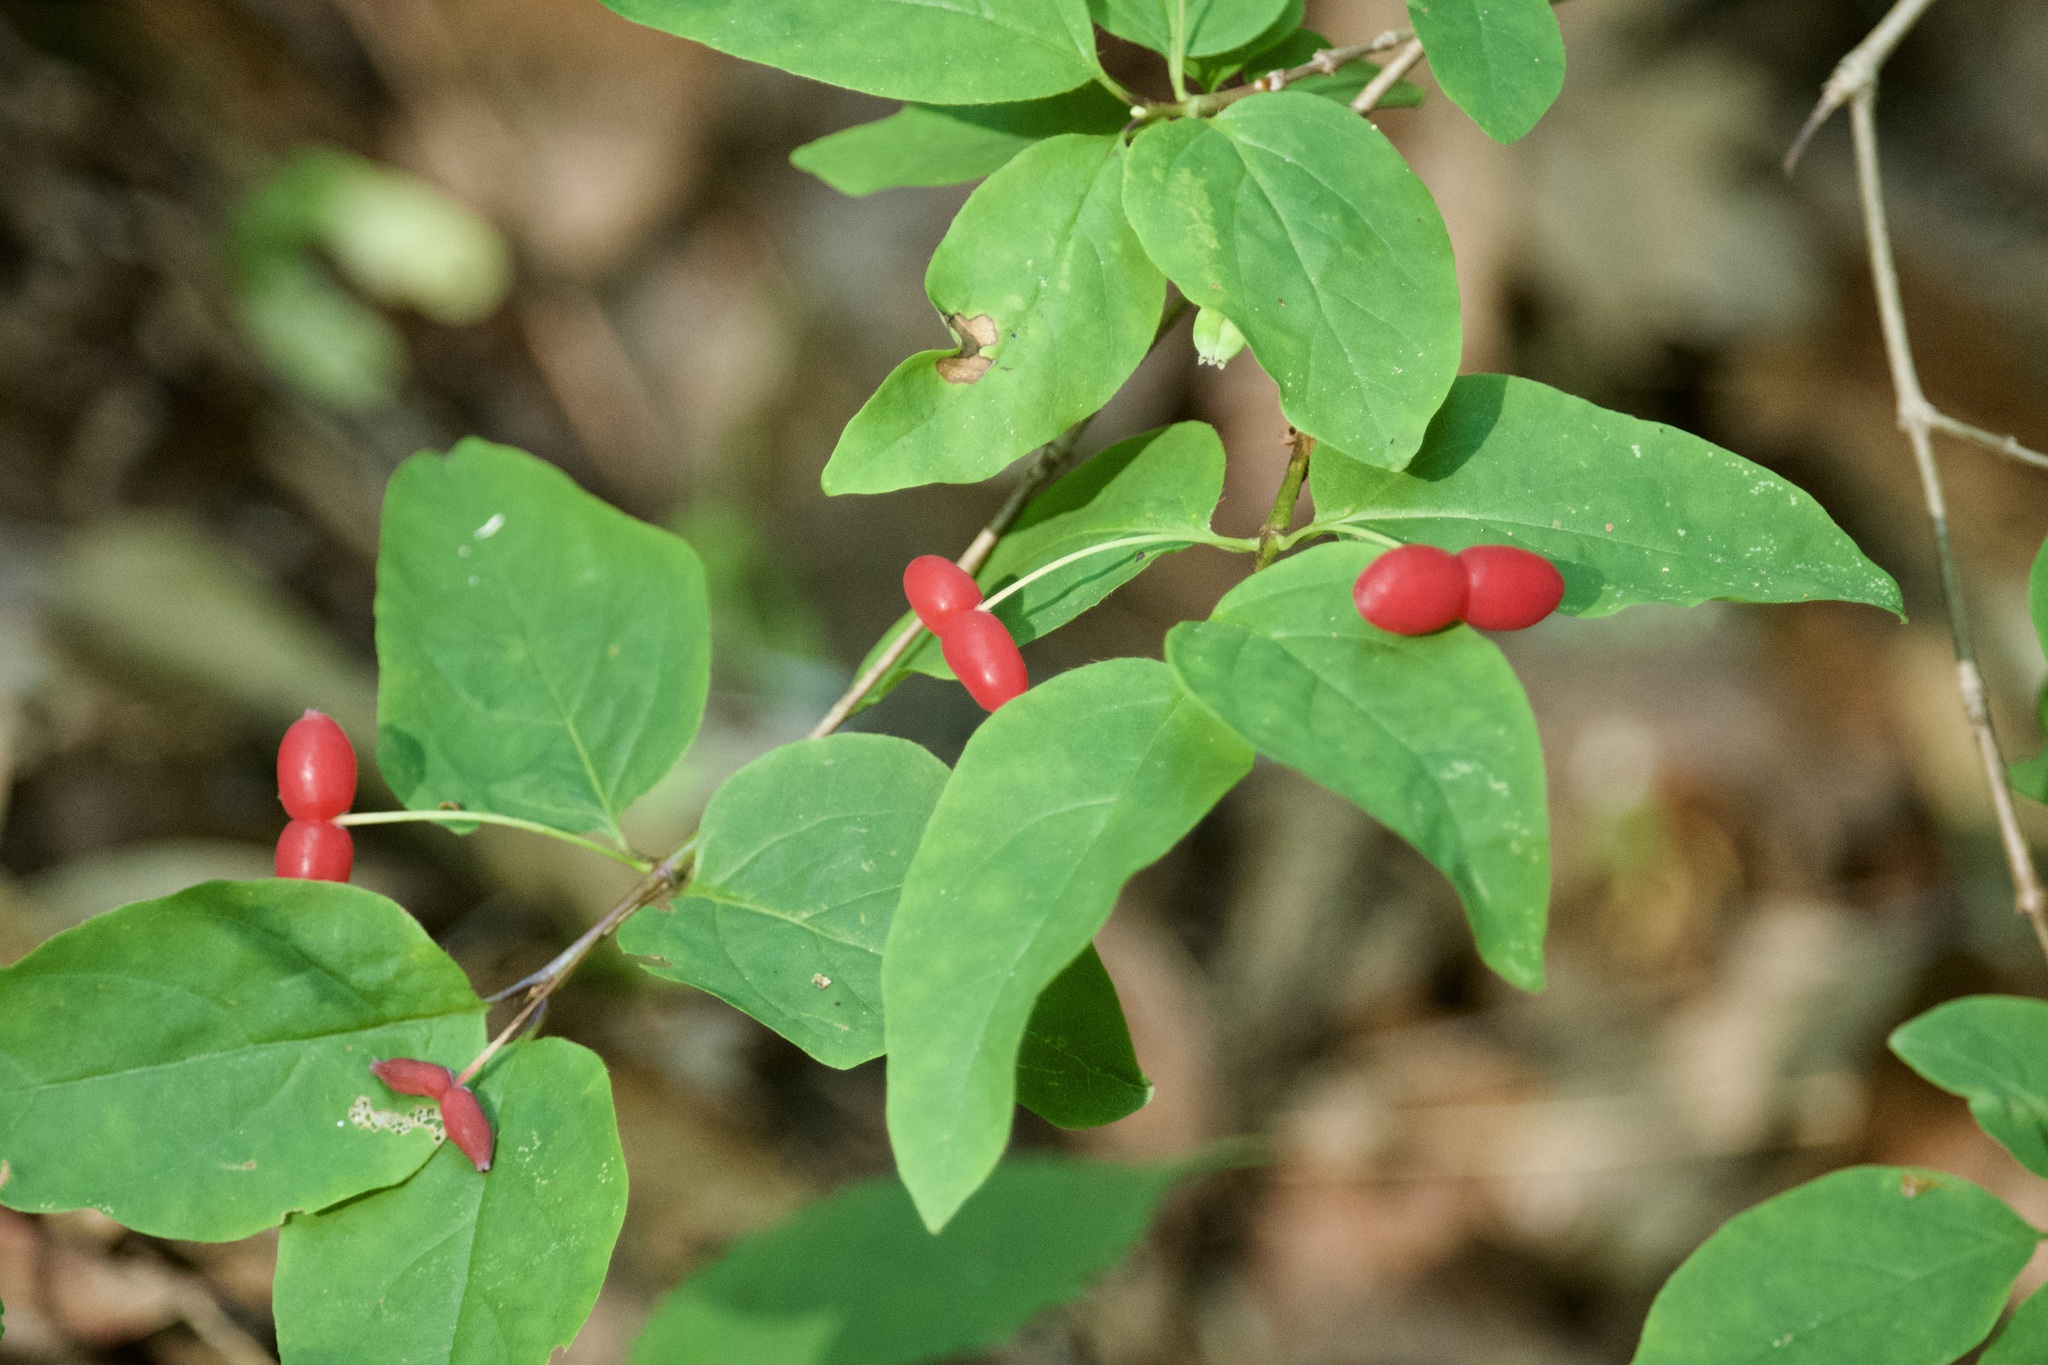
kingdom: Plantae
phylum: Tracheophyta
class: Magnoliopsida
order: Dipsacales
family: Caprifoliaceae
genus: Lonicera
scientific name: Lonicera canadensis
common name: American fly-honeysuckle
